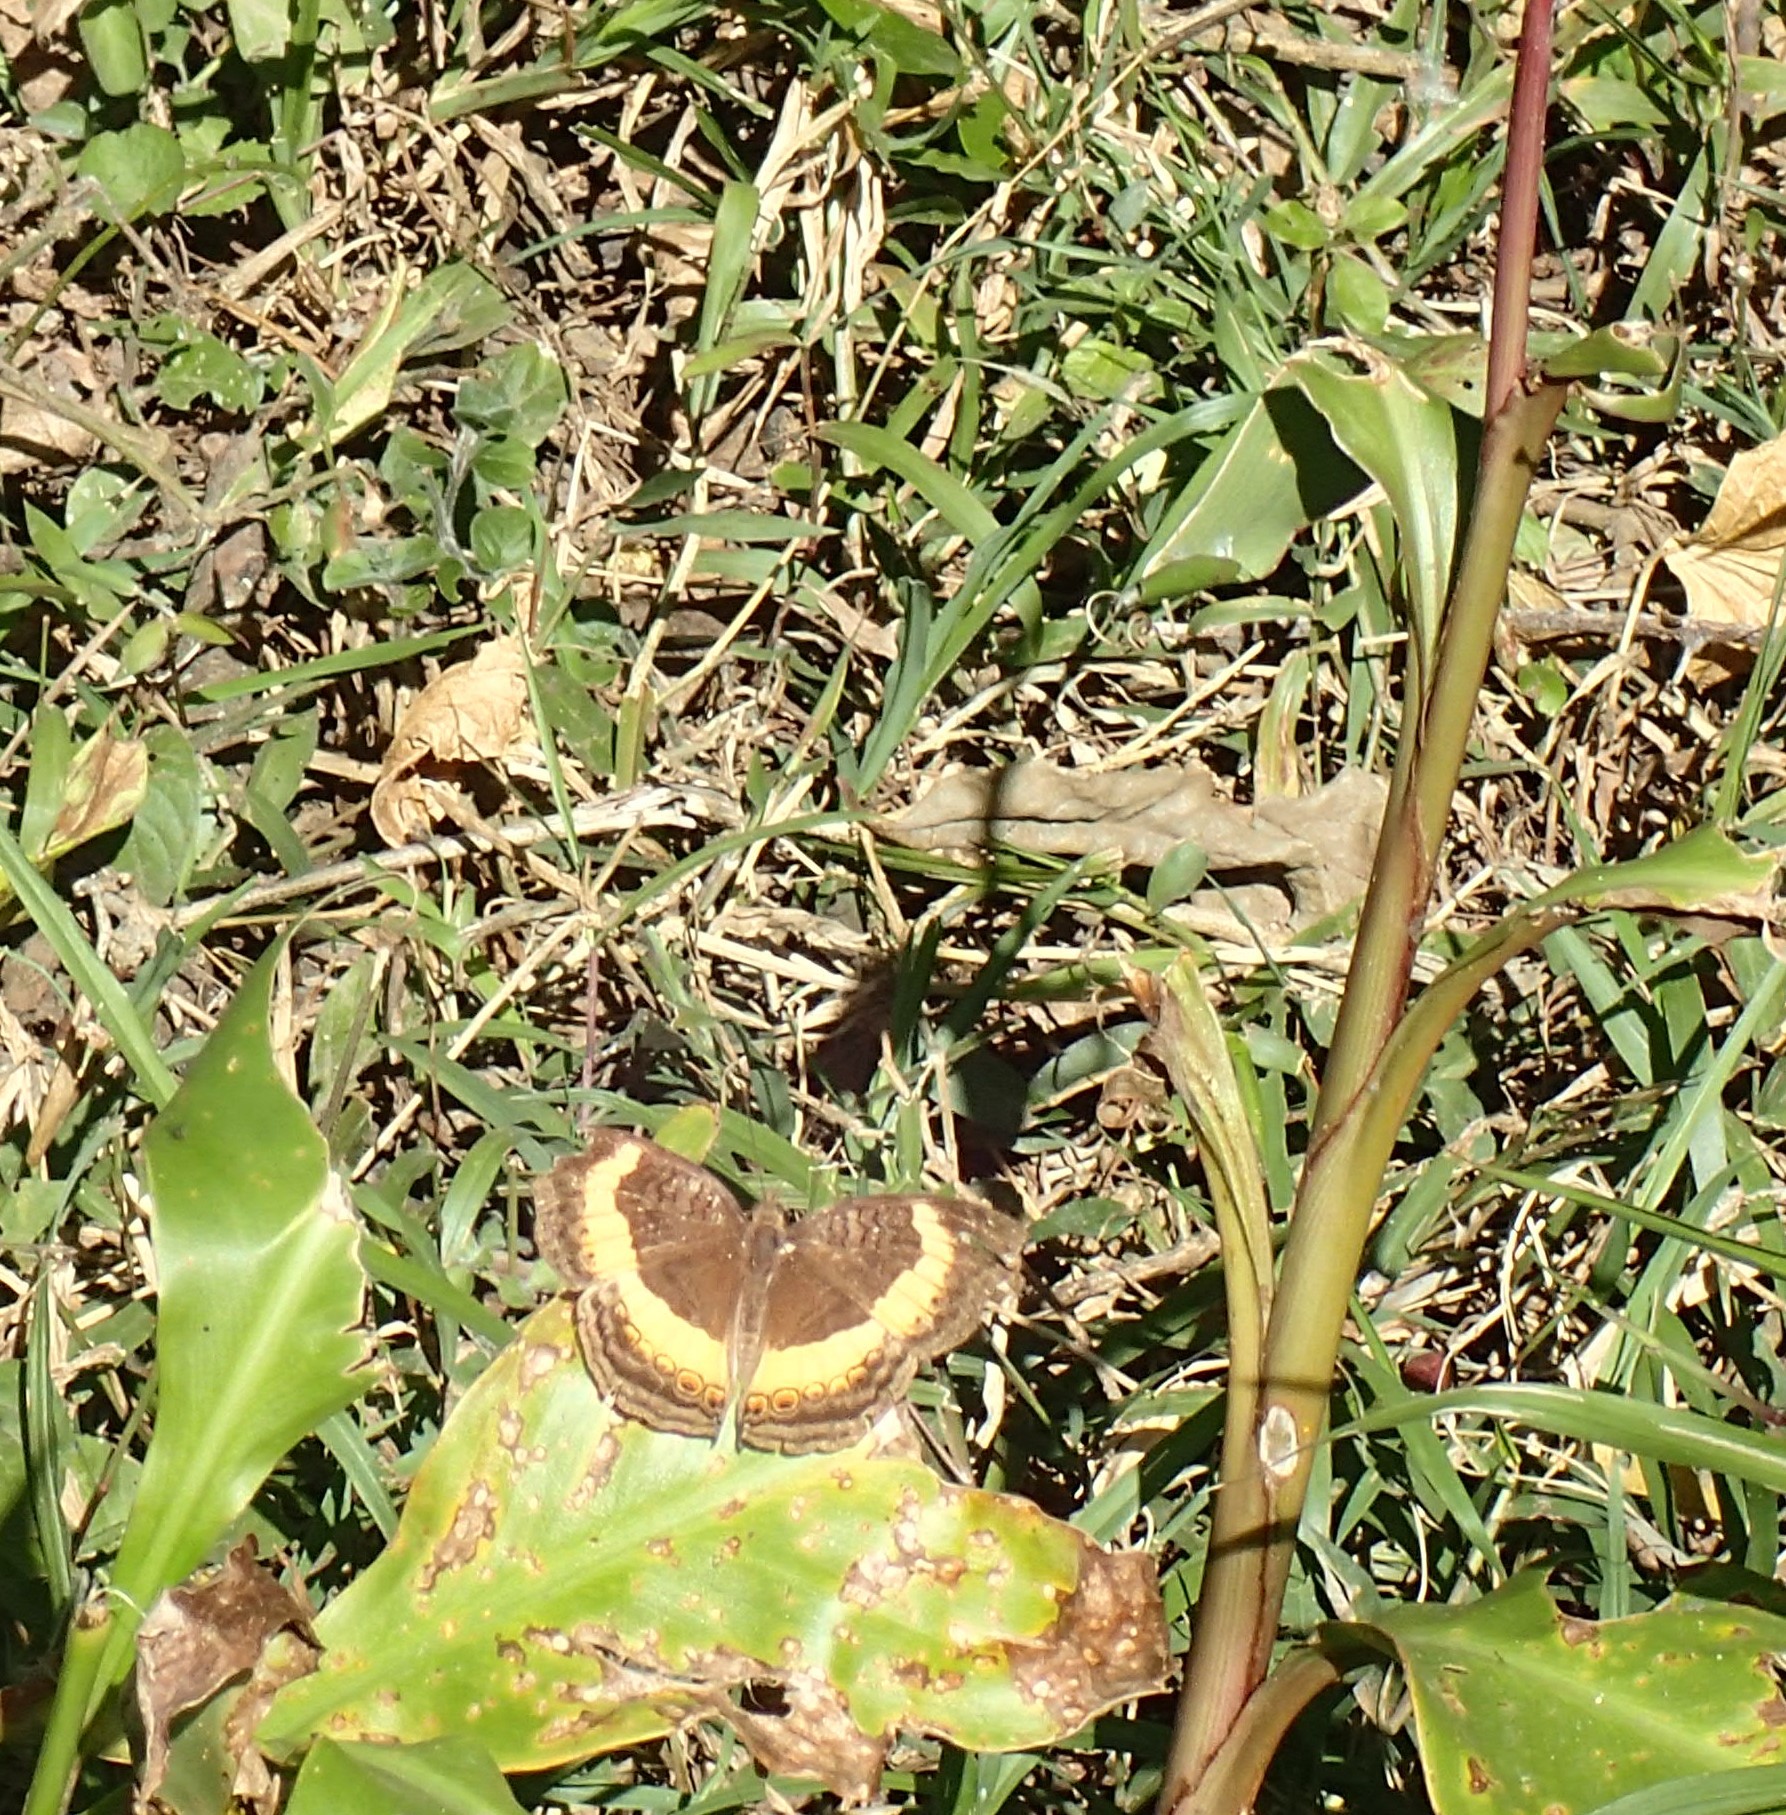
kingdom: Animalia
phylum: Arthropoda
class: Insecta
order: Lepidoptera
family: Nymphalidae
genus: Junonia
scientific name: Junonia terea
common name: Soldier pansy
